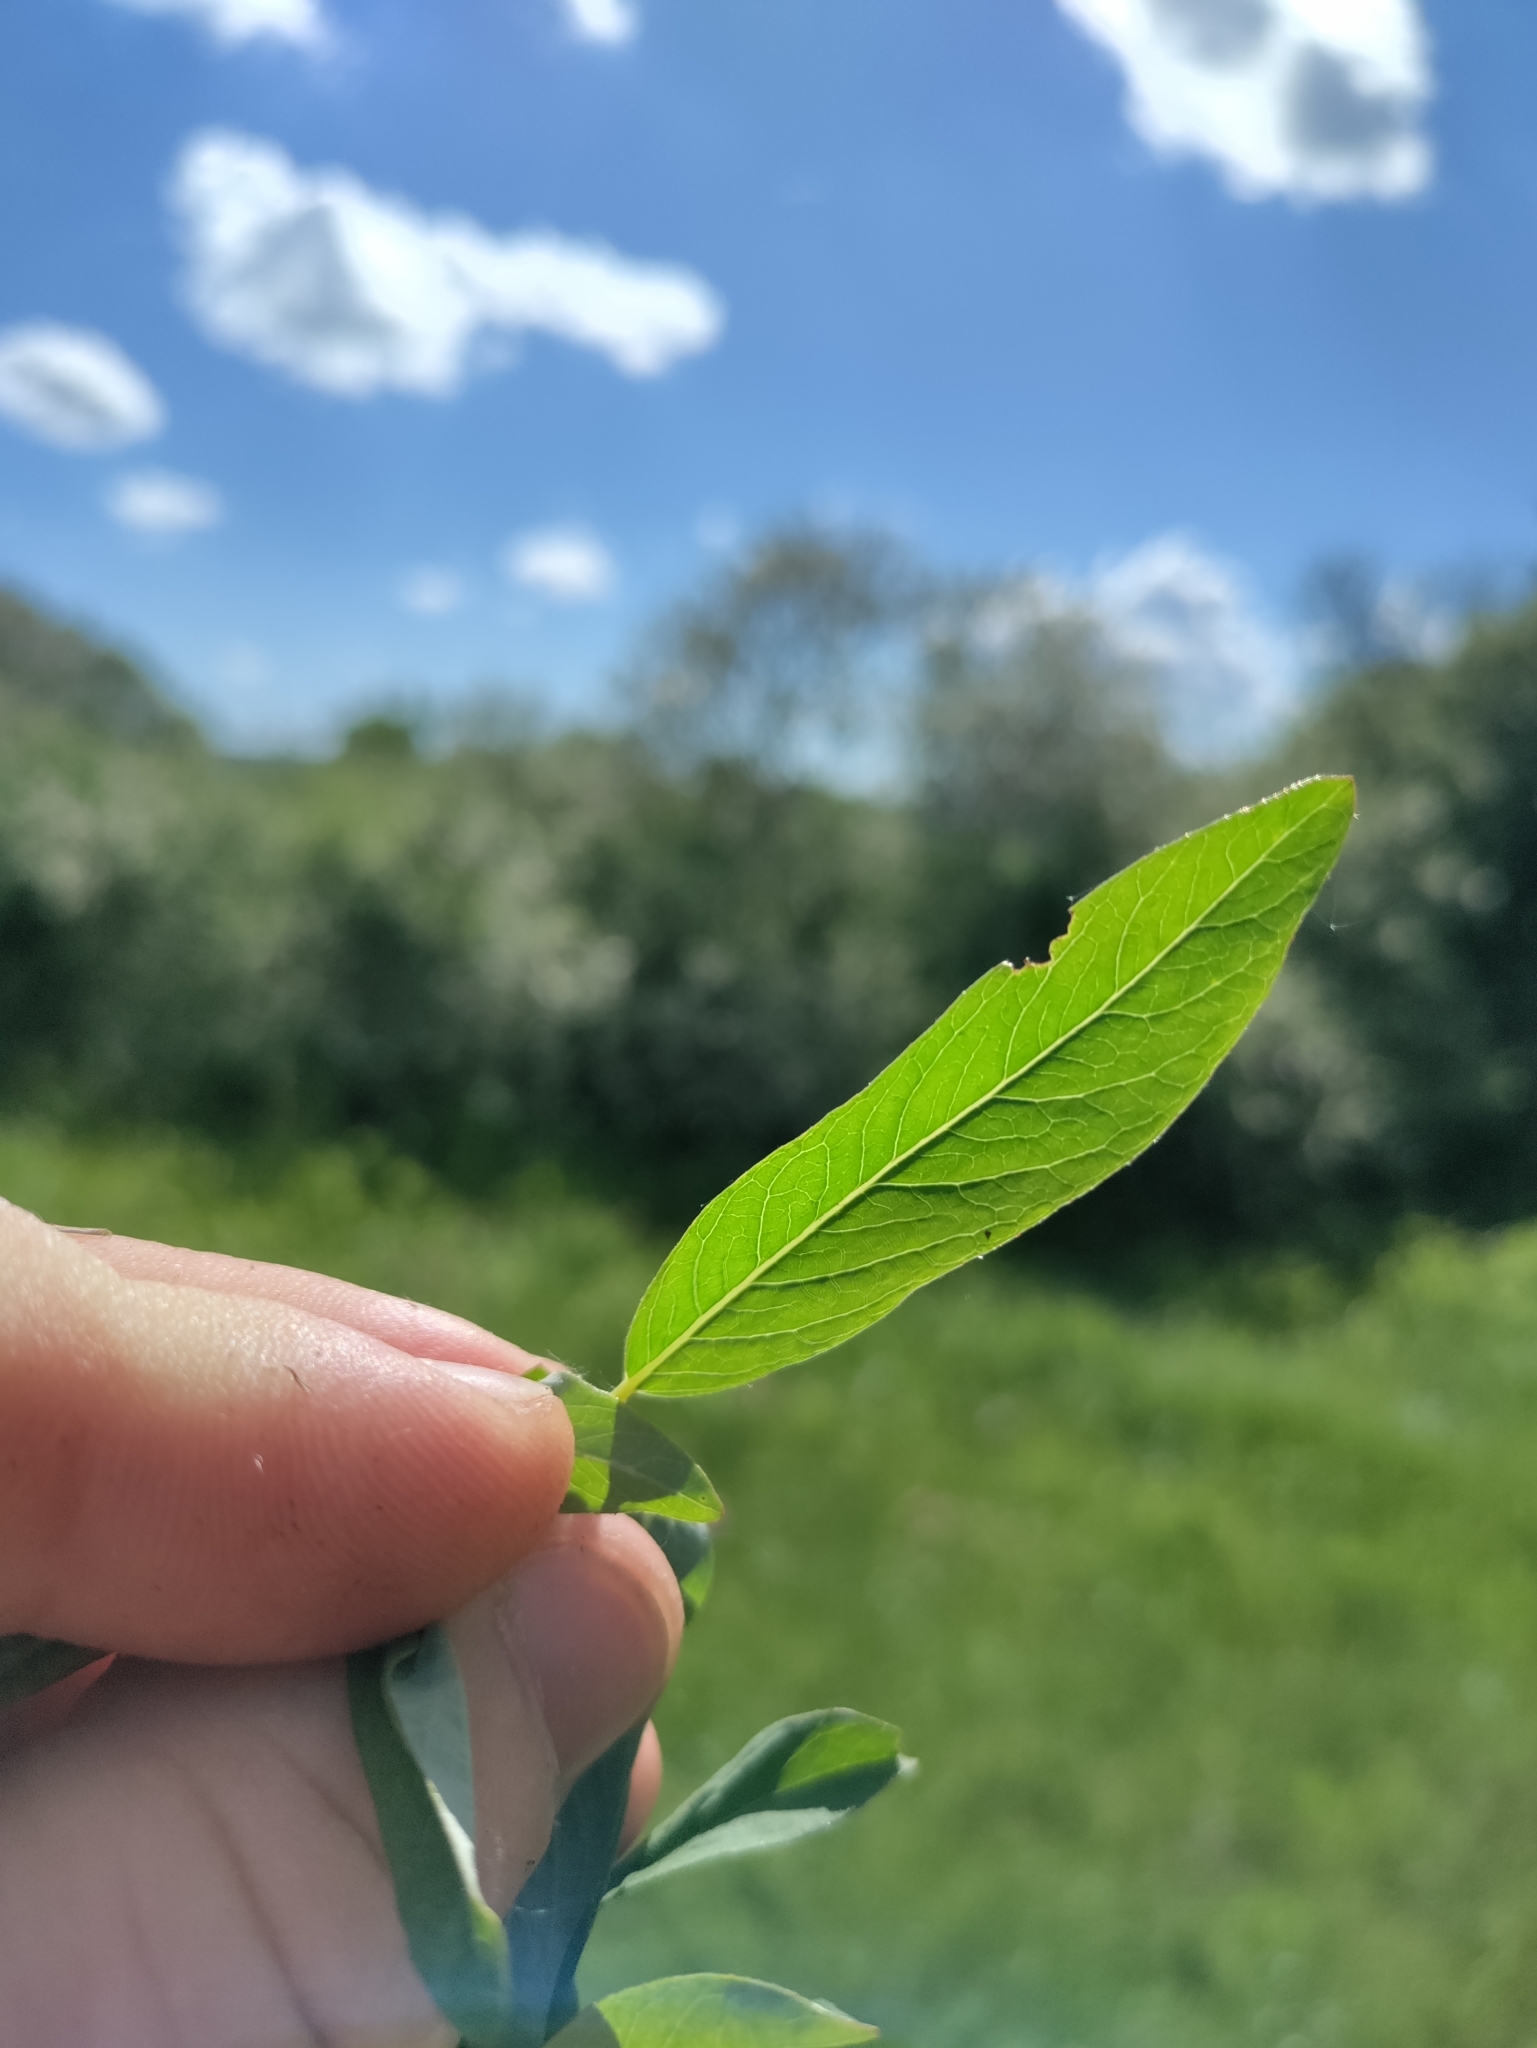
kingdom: Plantae
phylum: Tracheophyta
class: Magnoliopsida
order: Malpighiales
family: Salicaceae
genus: Salix
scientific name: Salix repens
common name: Creeping willow
